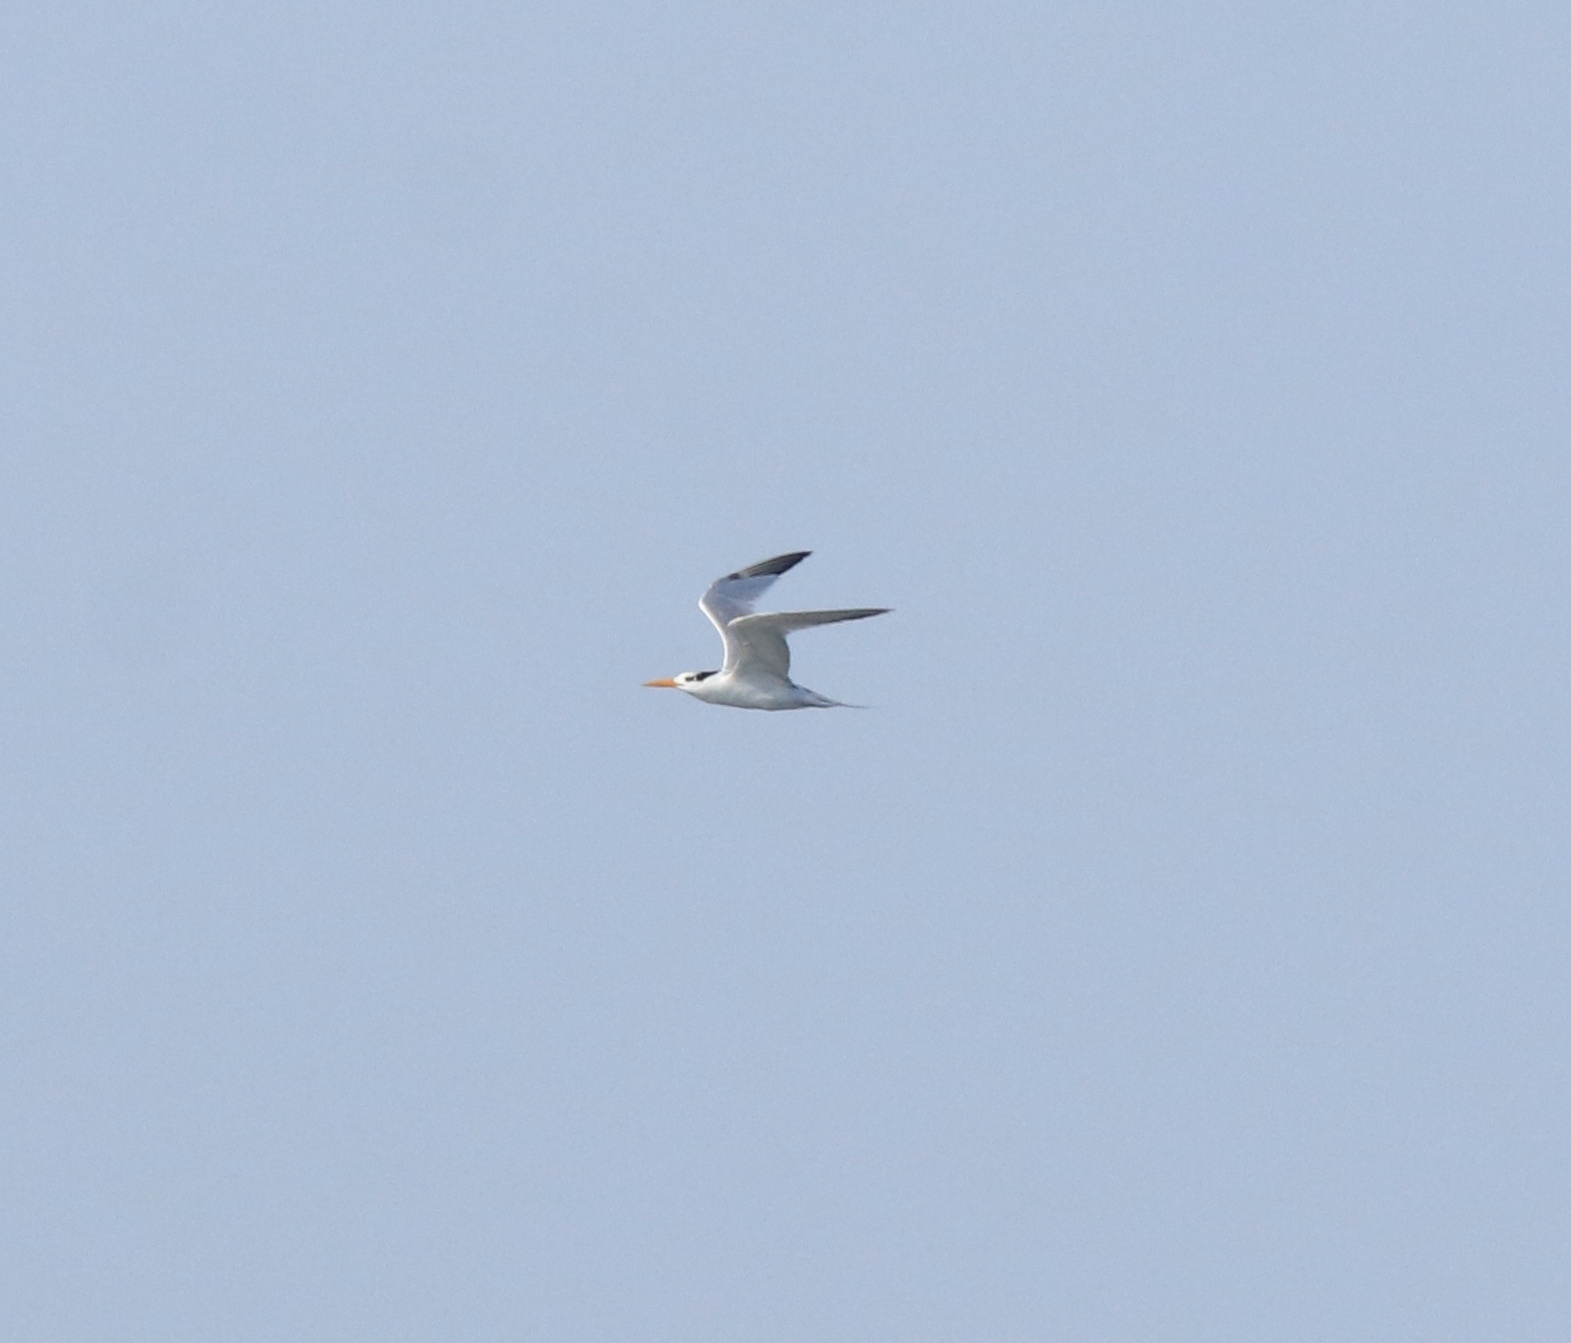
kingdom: Animalia
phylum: Chordata
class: Aves
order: Charadriiformes
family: Laridae
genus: Thalasseus
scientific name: Thalasseus bengalensis
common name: Lesser crested tern
